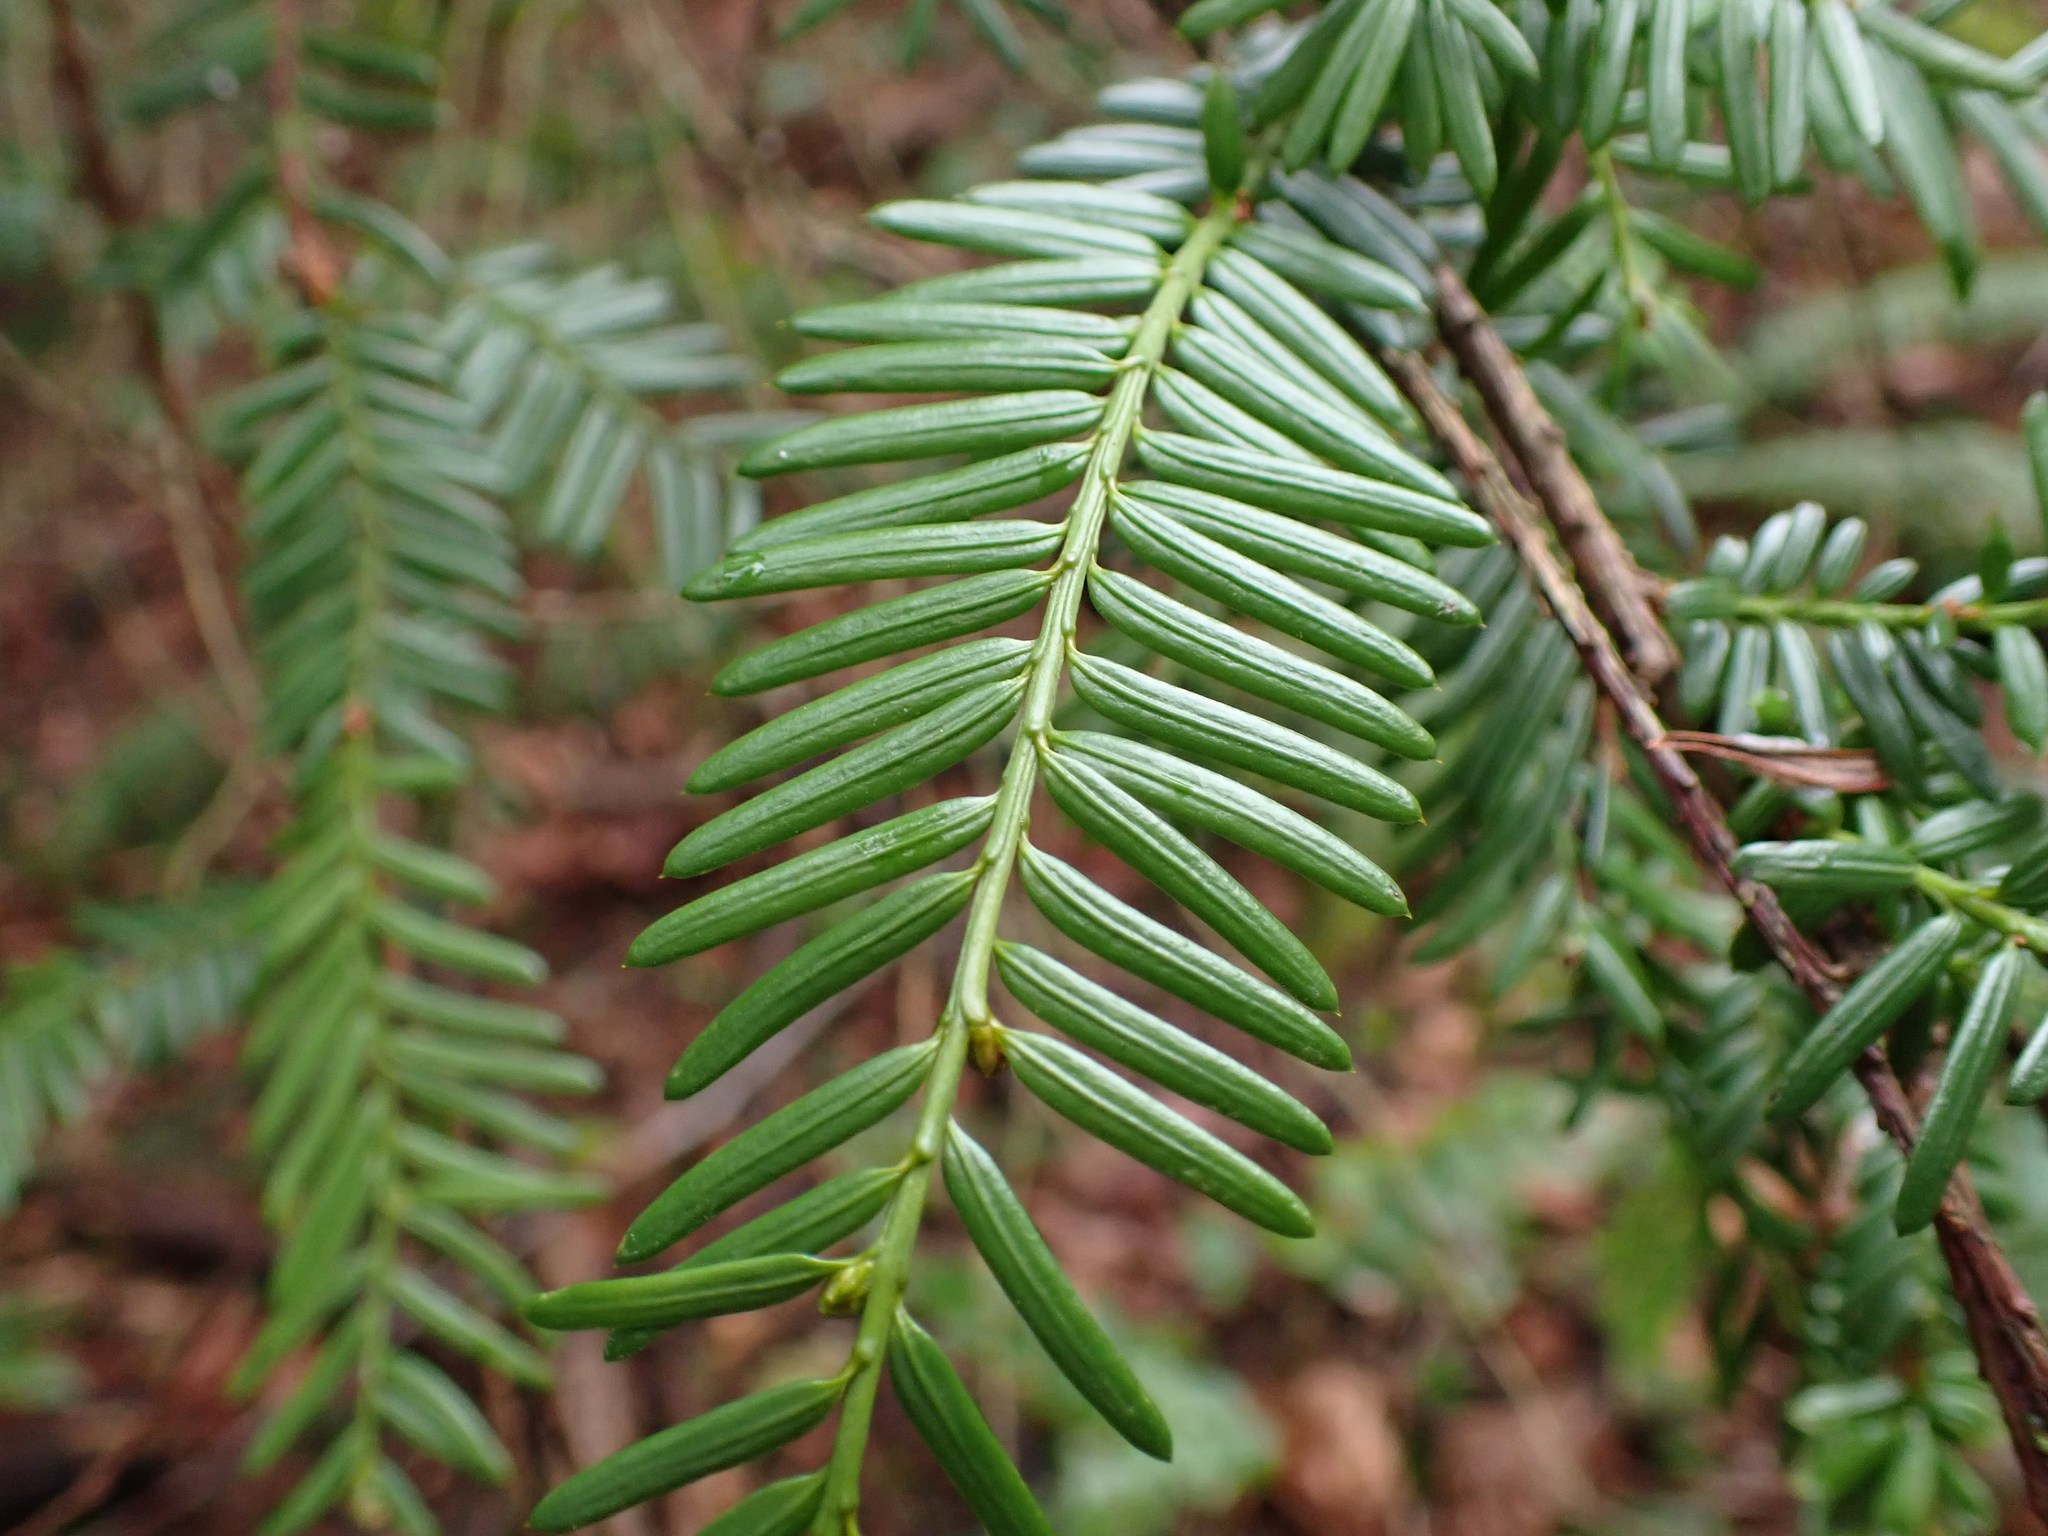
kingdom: Plantae
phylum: Tracheophyta
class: Pinopsida
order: Pinales
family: Taxaceae
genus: Taxus
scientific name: Taxus brevifolia
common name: Pacific yew
